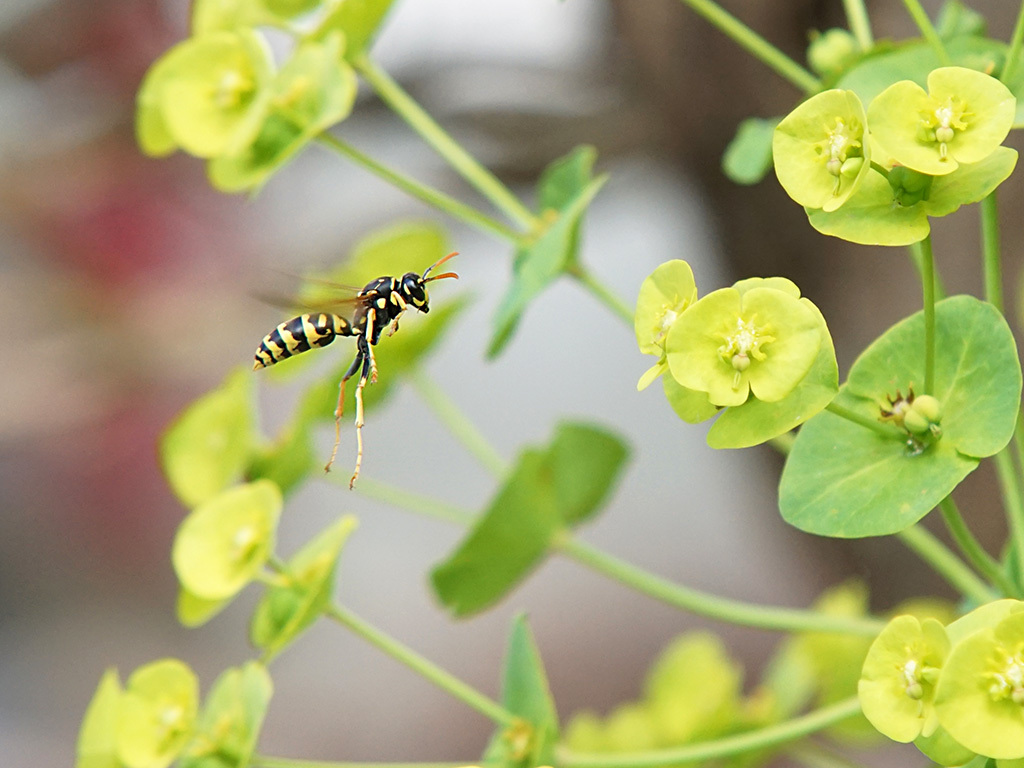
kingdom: Animalia
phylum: Arthropoda
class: Insecta
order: Hymenoptera
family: Eumenidae
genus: Polistes
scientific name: Polistes dominula
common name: Paper wasp
